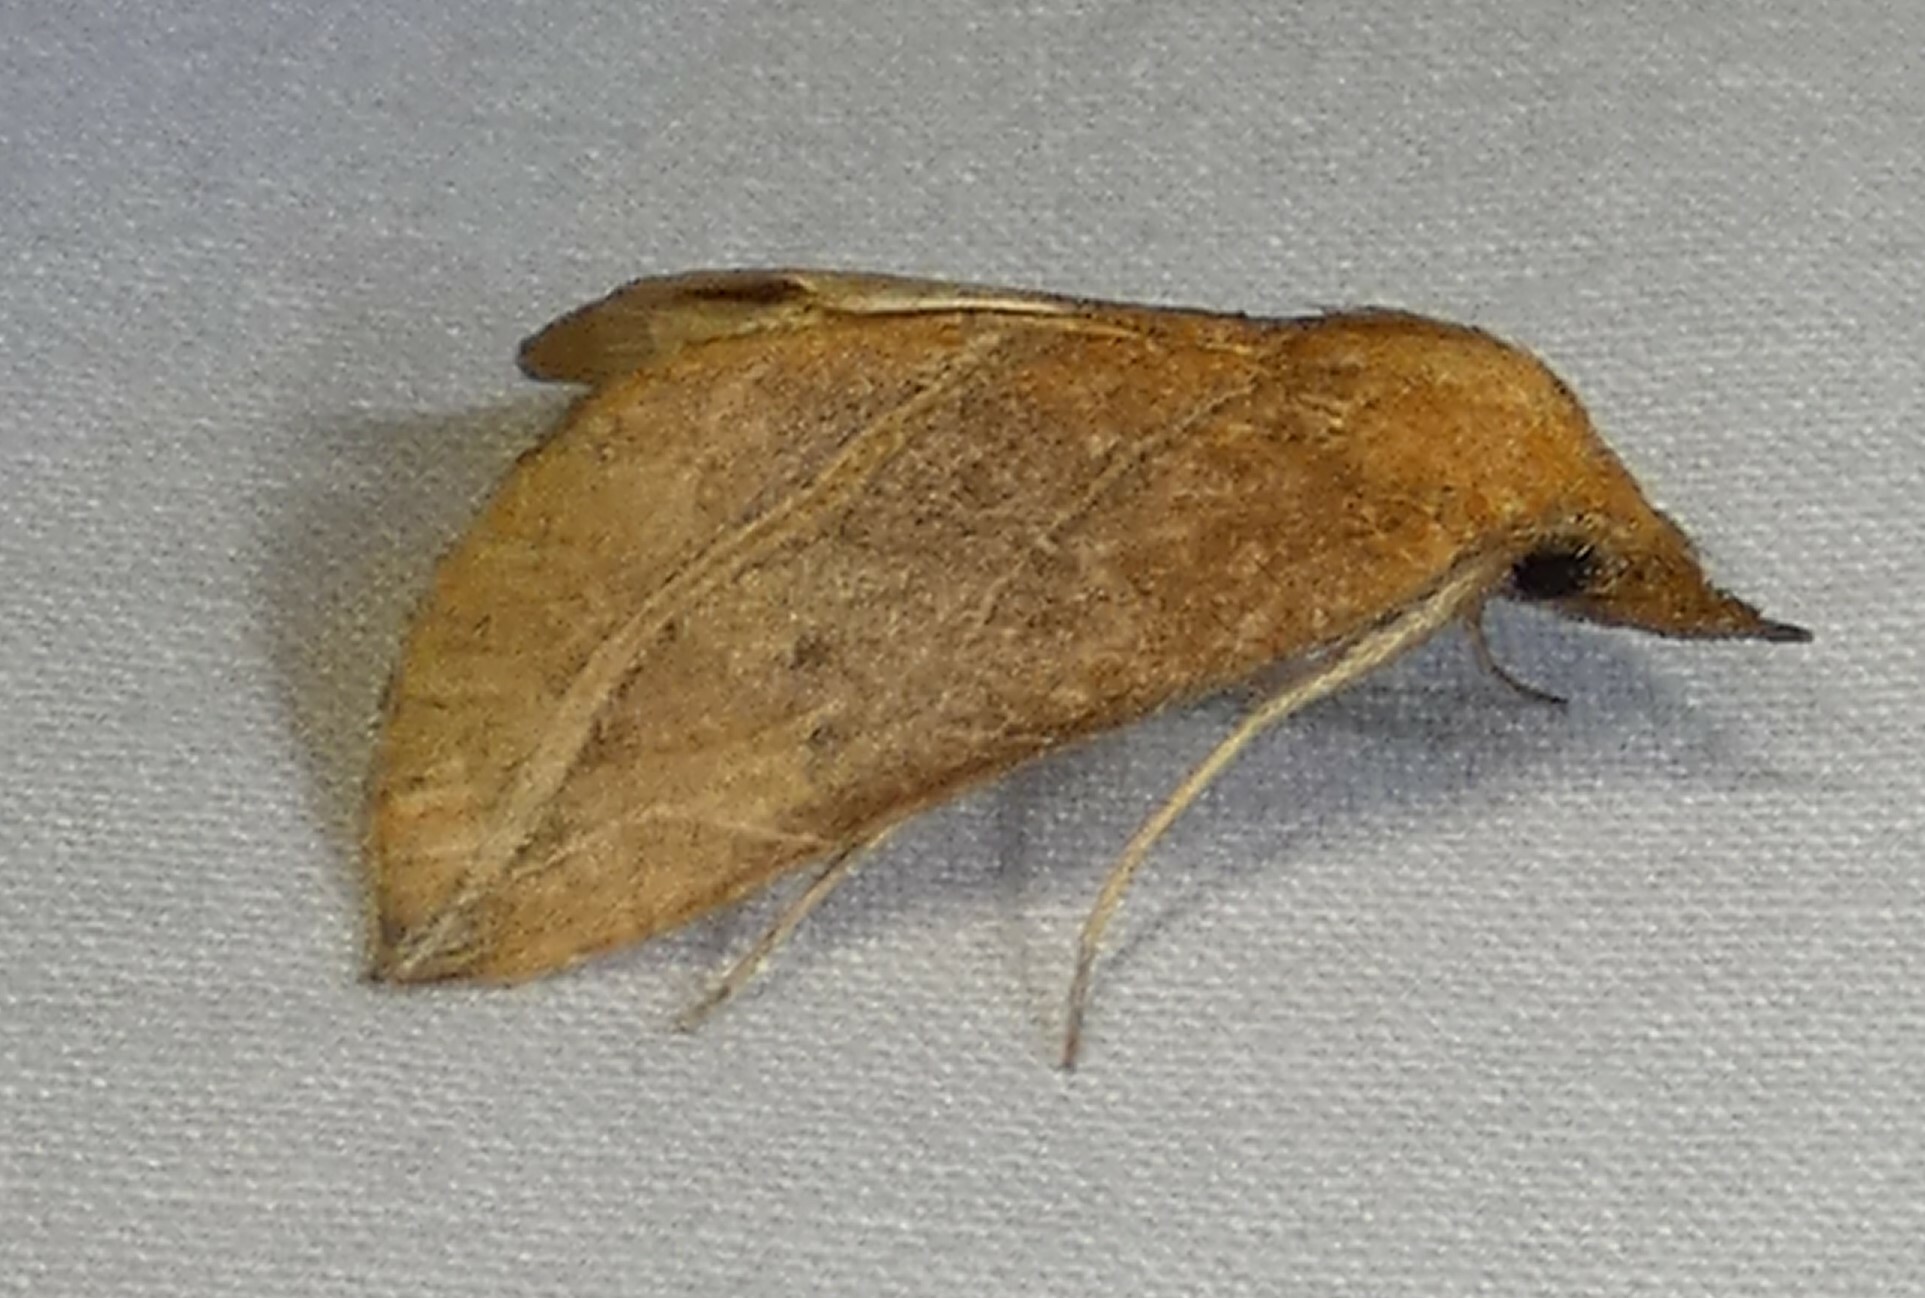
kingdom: Animalia
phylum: Arthropoda
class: Insecta
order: Lepidoptera
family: Erebidae
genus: Phyprosopus
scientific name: Phyprosopus callitrichoides
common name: Curved-lined owlet
